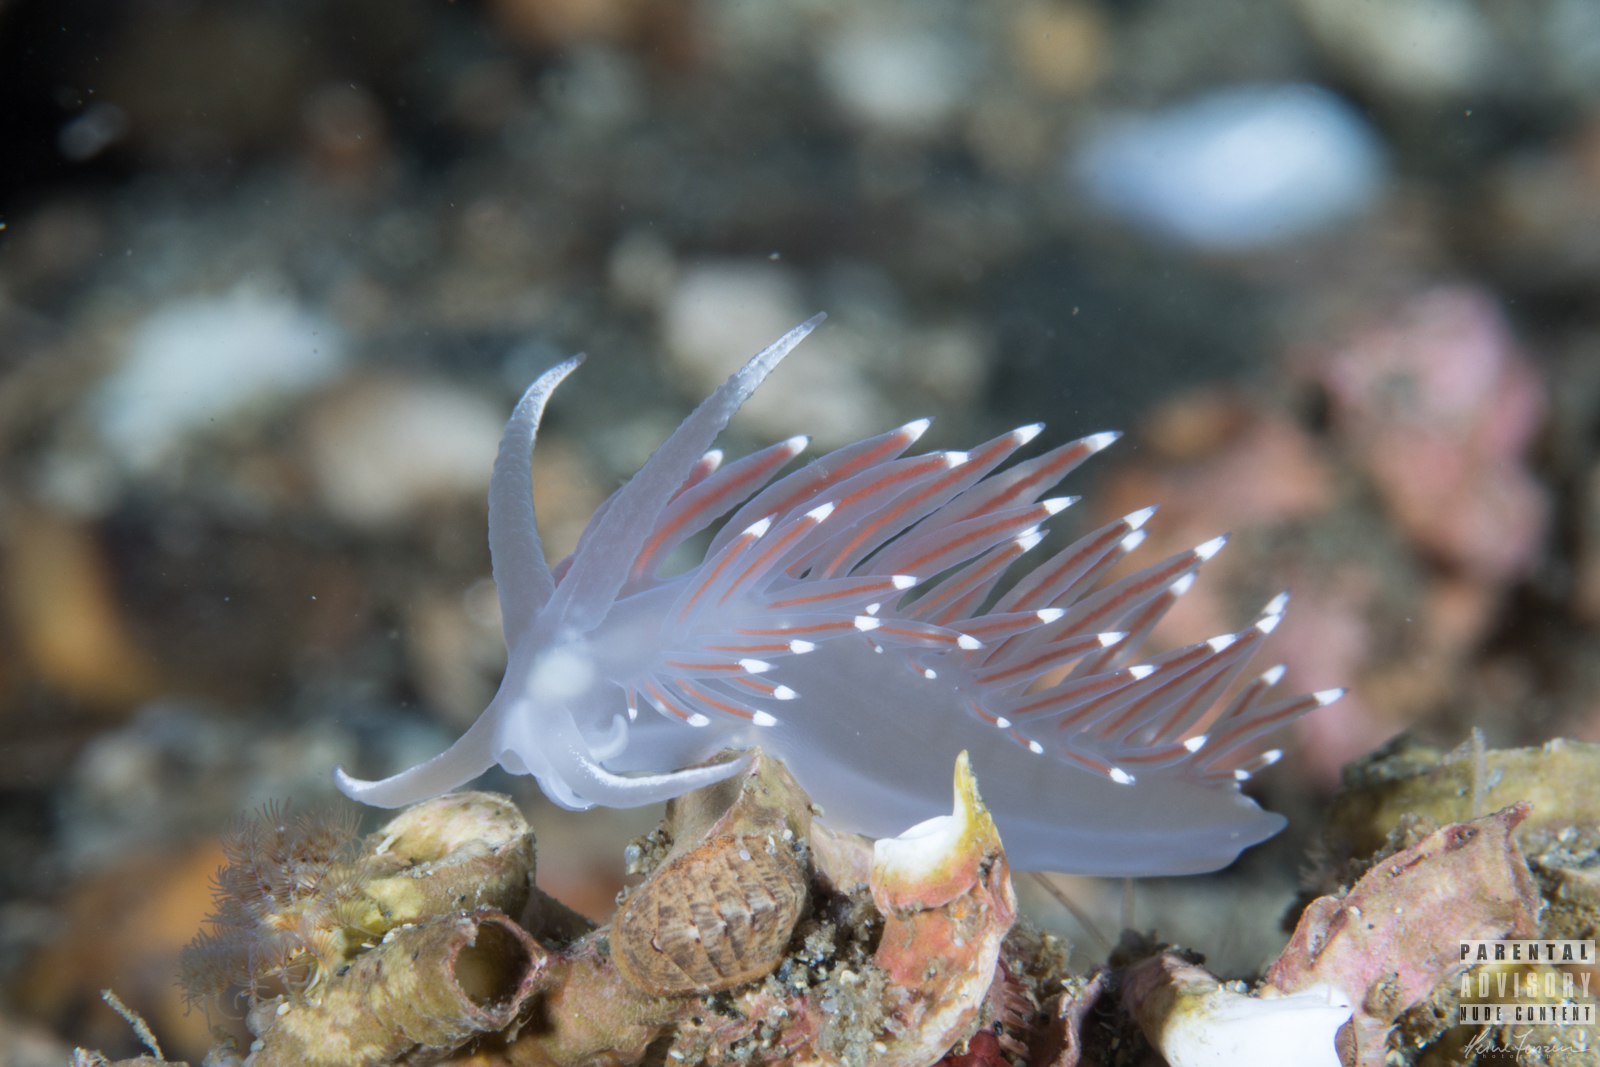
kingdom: Animalia
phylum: Mollusca
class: Gastropoda
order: Nudibranchia
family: Coryphellidae
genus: Coryphella
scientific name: Coryphella browni
